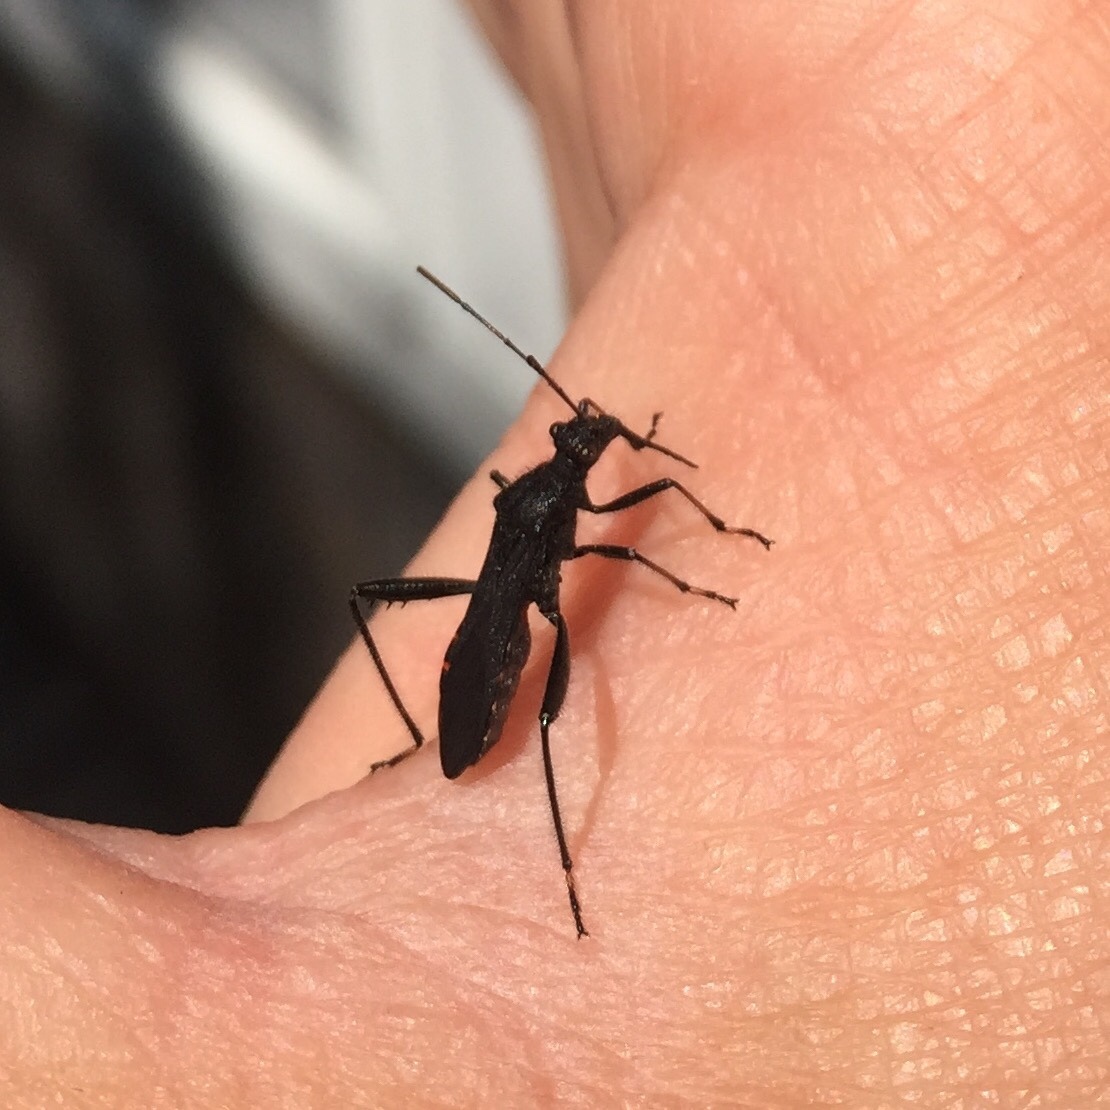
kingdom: Animalia
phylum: Arthropoda
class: Insecta
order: Hemiptera
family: Alydidae
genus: Alydus
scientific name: Alydus eurinus
